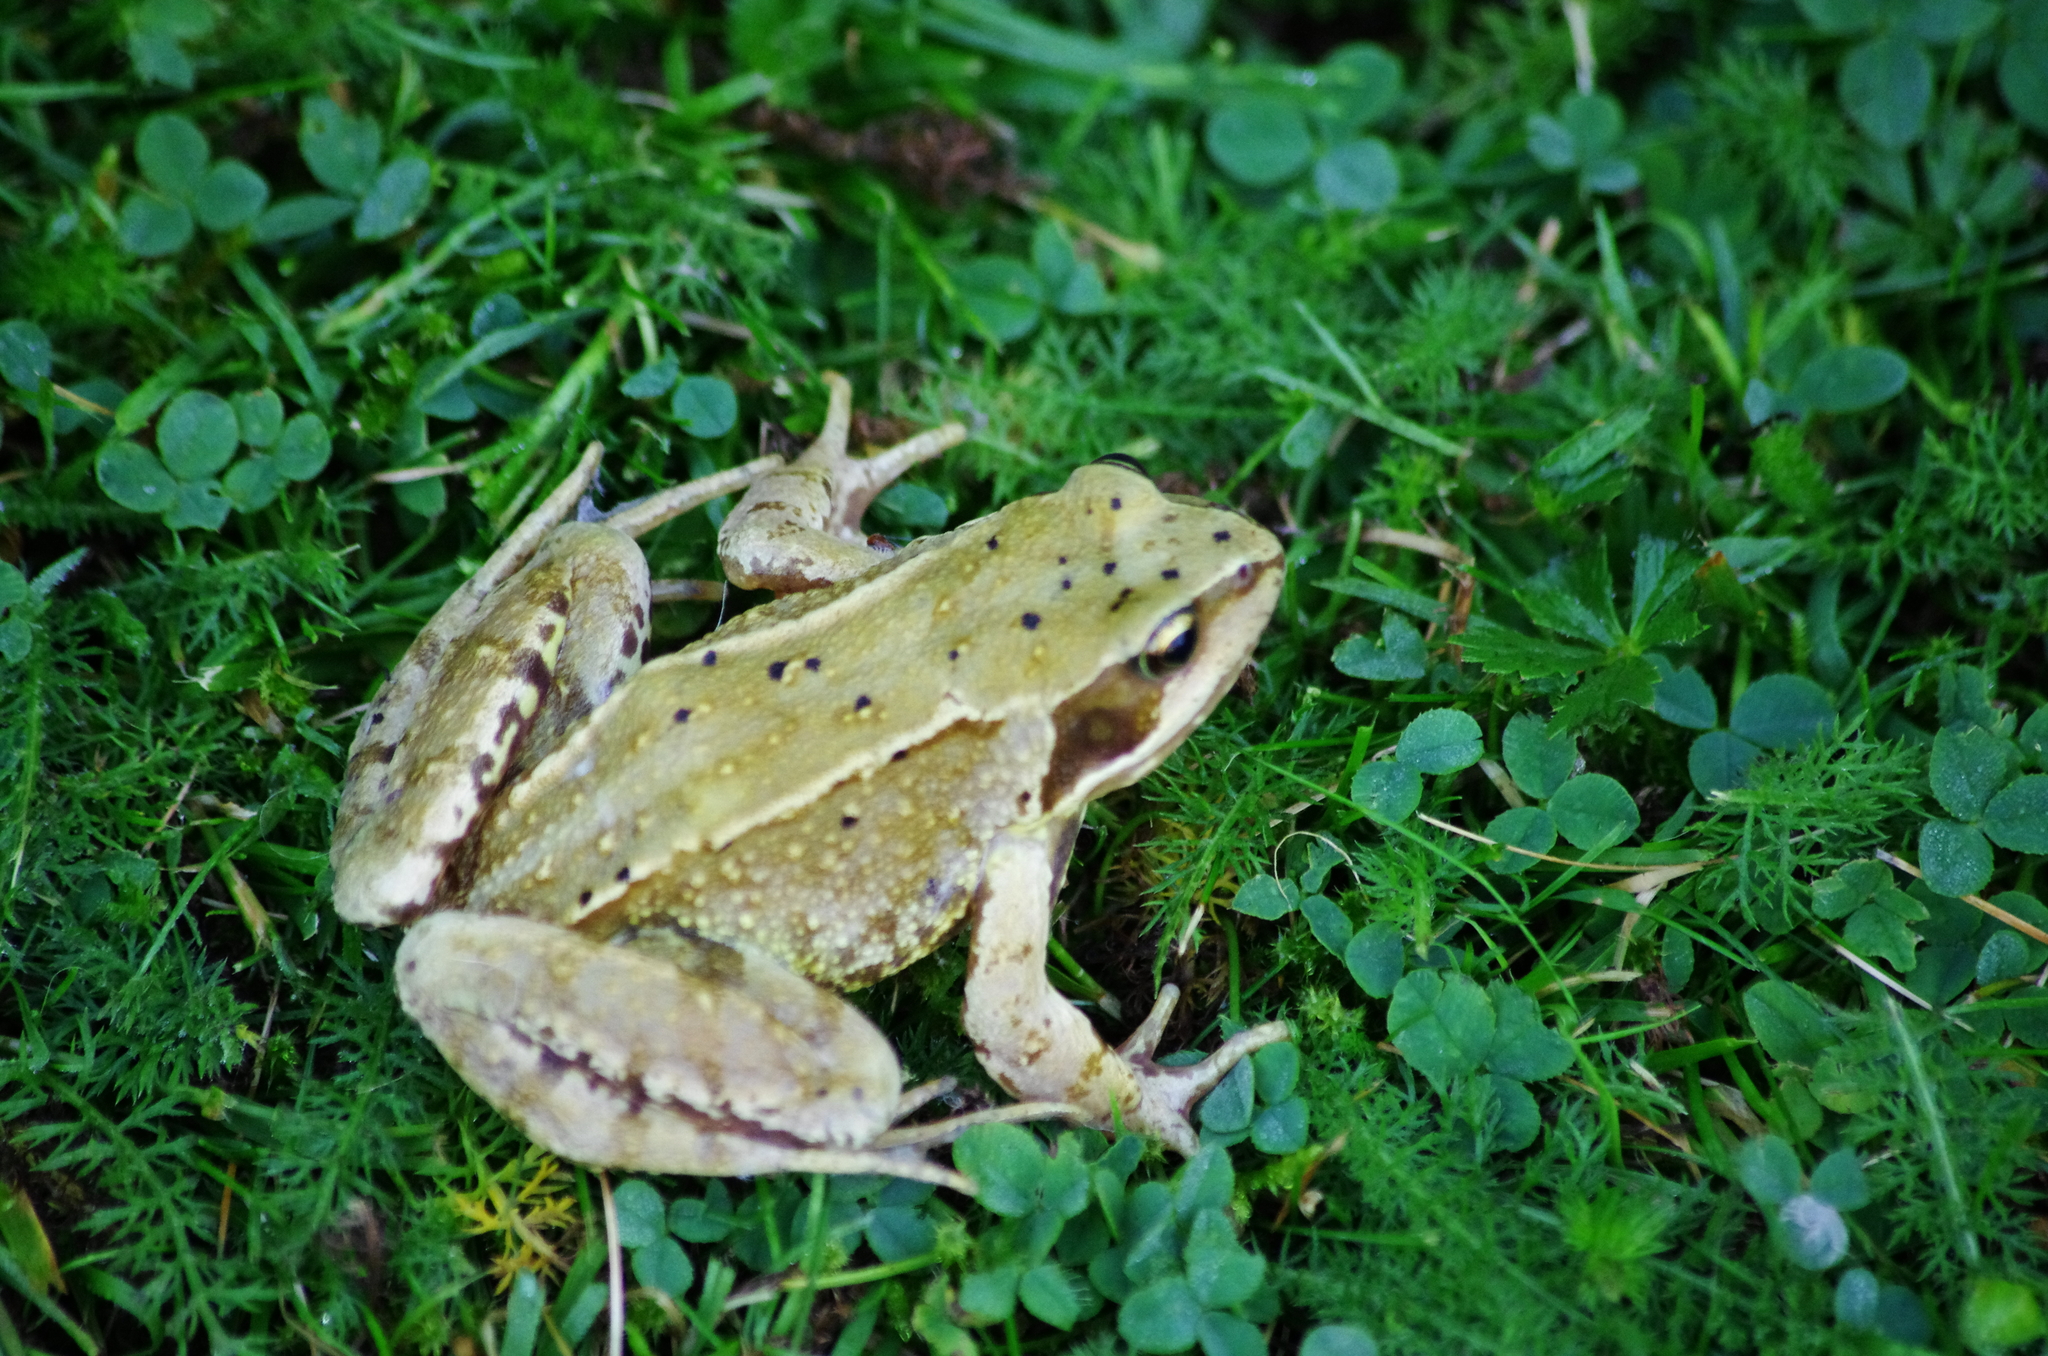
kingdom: Animalia
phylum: Chordata
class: Amphibia
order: Anura
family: Ranidae
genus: Rana
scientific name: Rana temporaria
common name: Common frog
